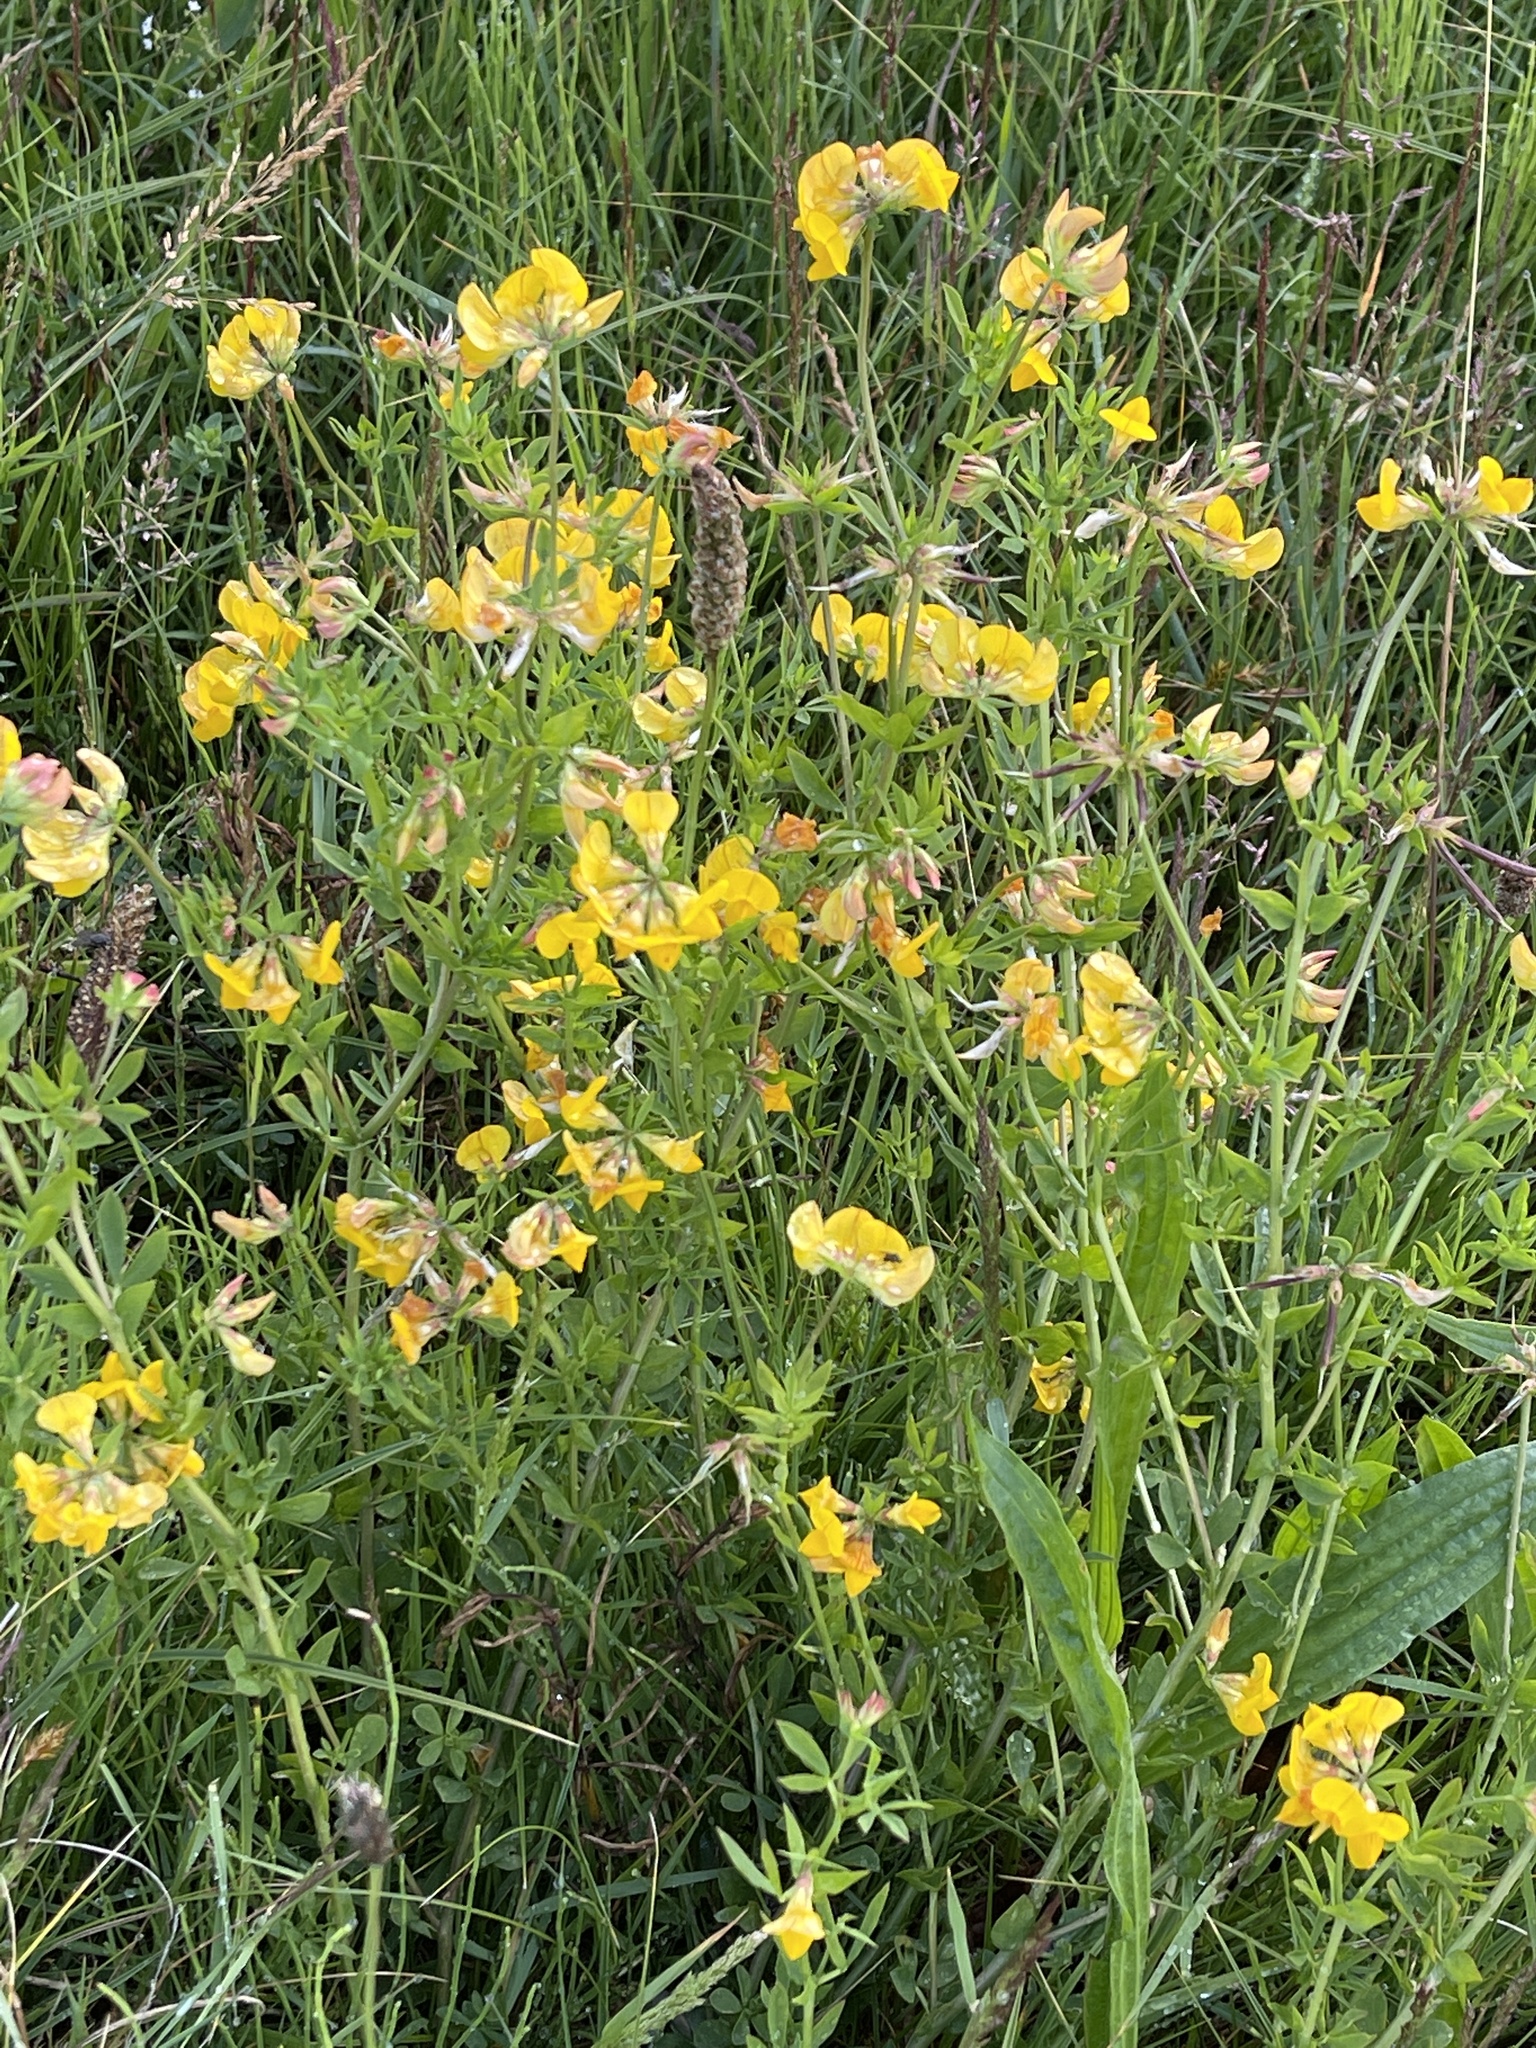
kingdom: Plantae
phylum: Tracheophyta
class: Magnoliopsida
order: Fabales
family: Fabaceae
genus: Lotus
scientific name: Lotus corniculatus
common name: Common bird's-foot-trefoil
